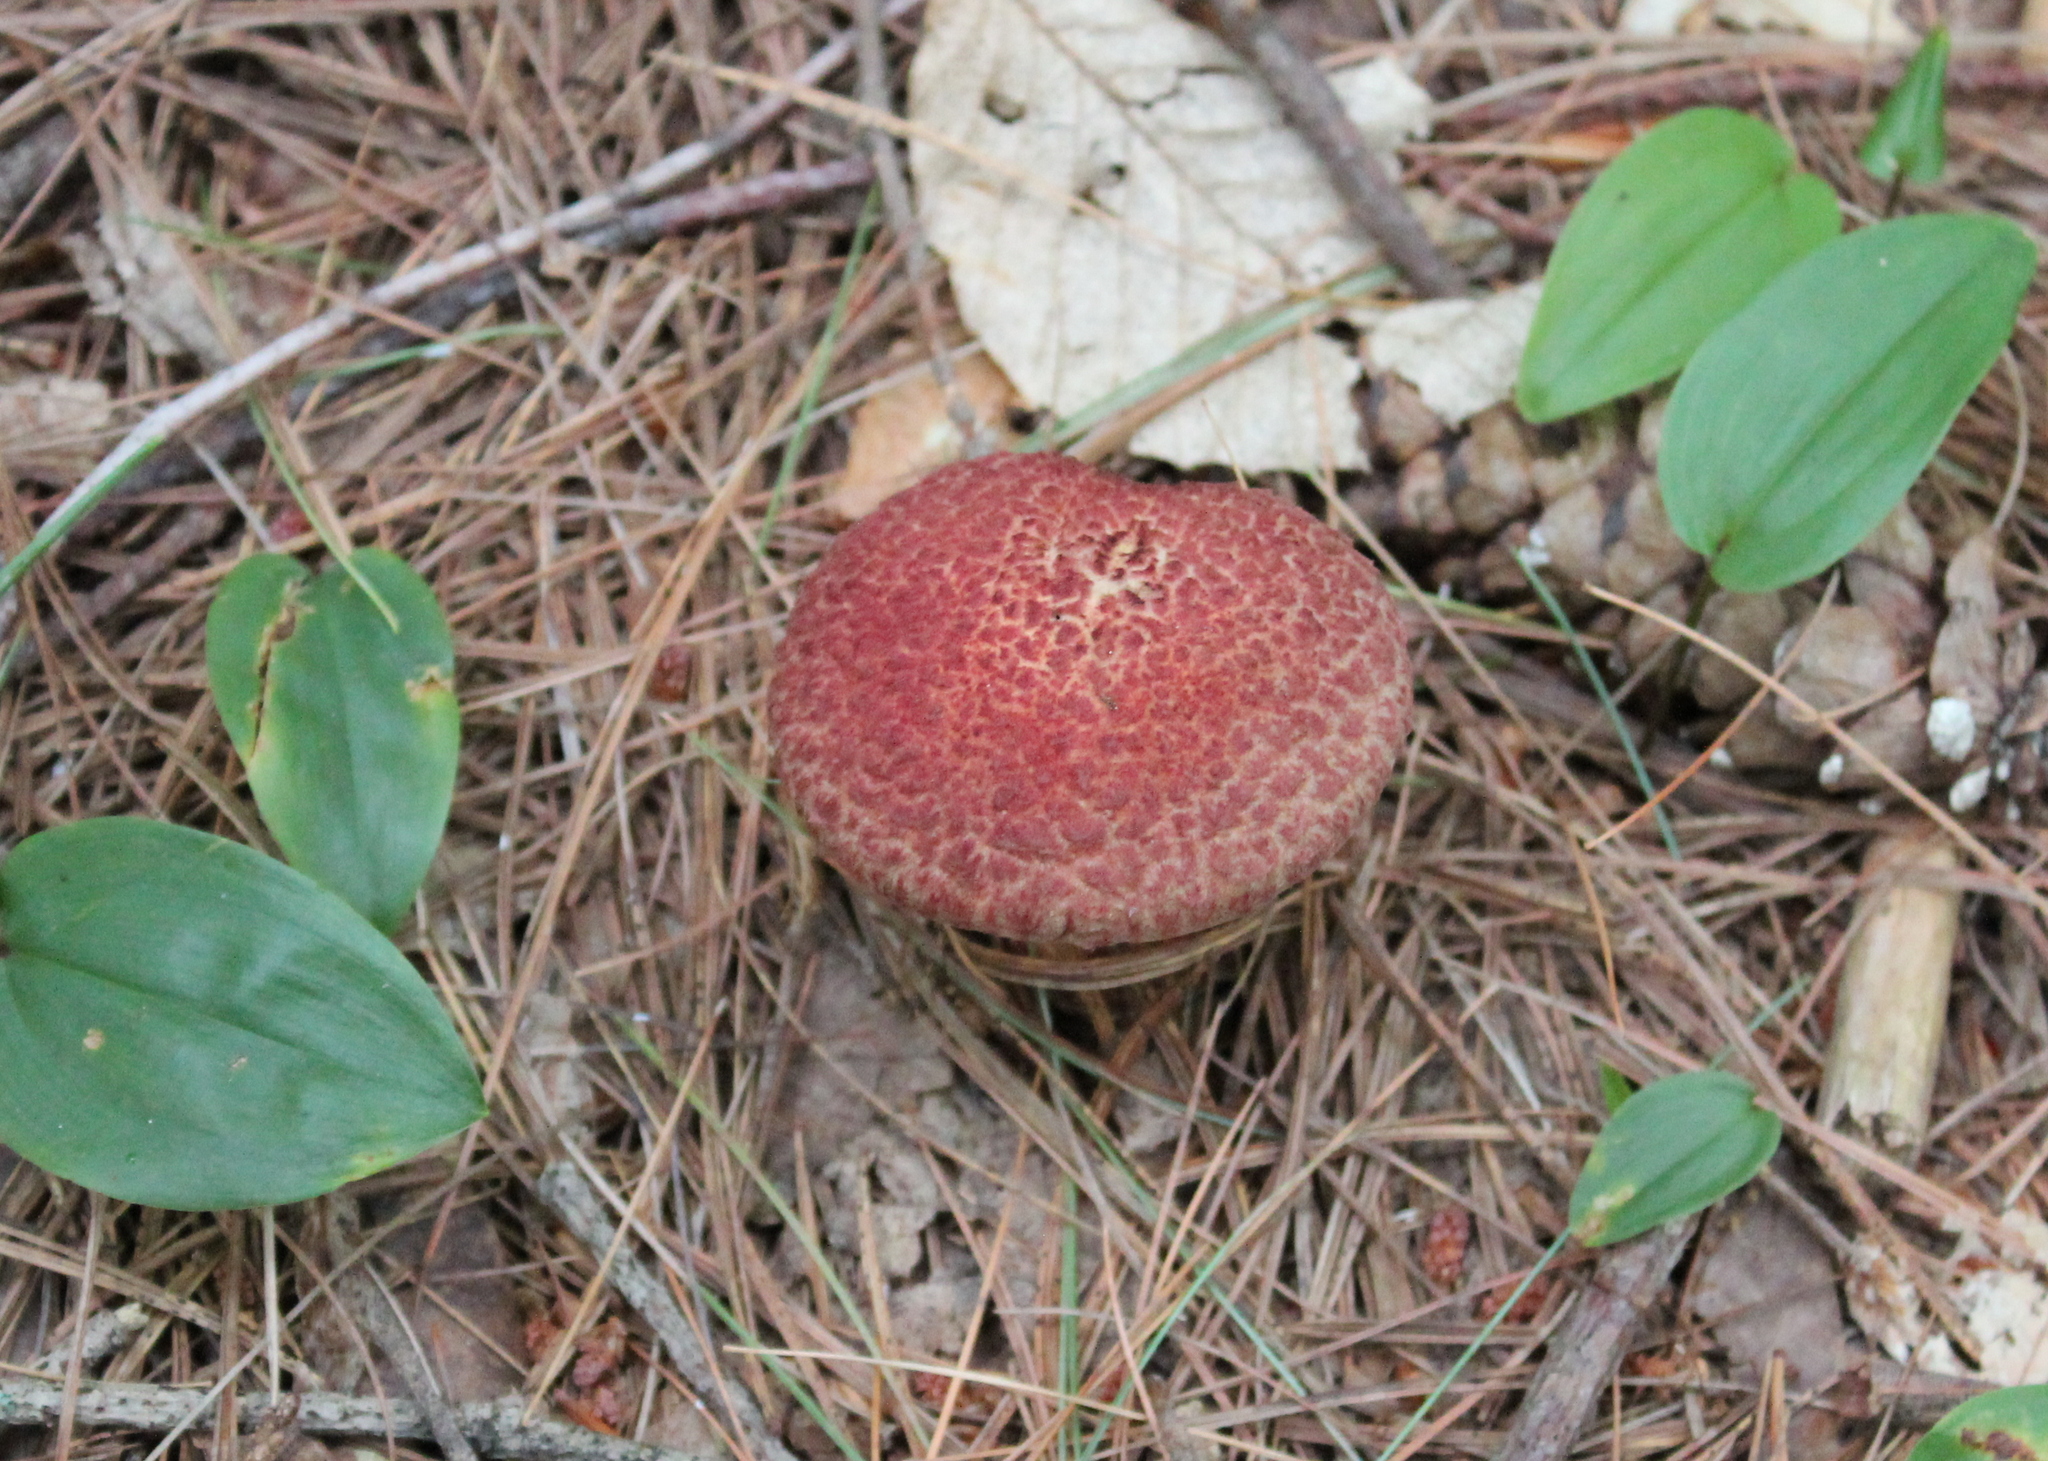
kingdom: Fungi
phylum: Basidiomycota
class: Agaricomycetes
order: Boletales
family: Suillaceae
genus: Suillus
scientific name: Suillus spraguei
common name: Painted suillus
